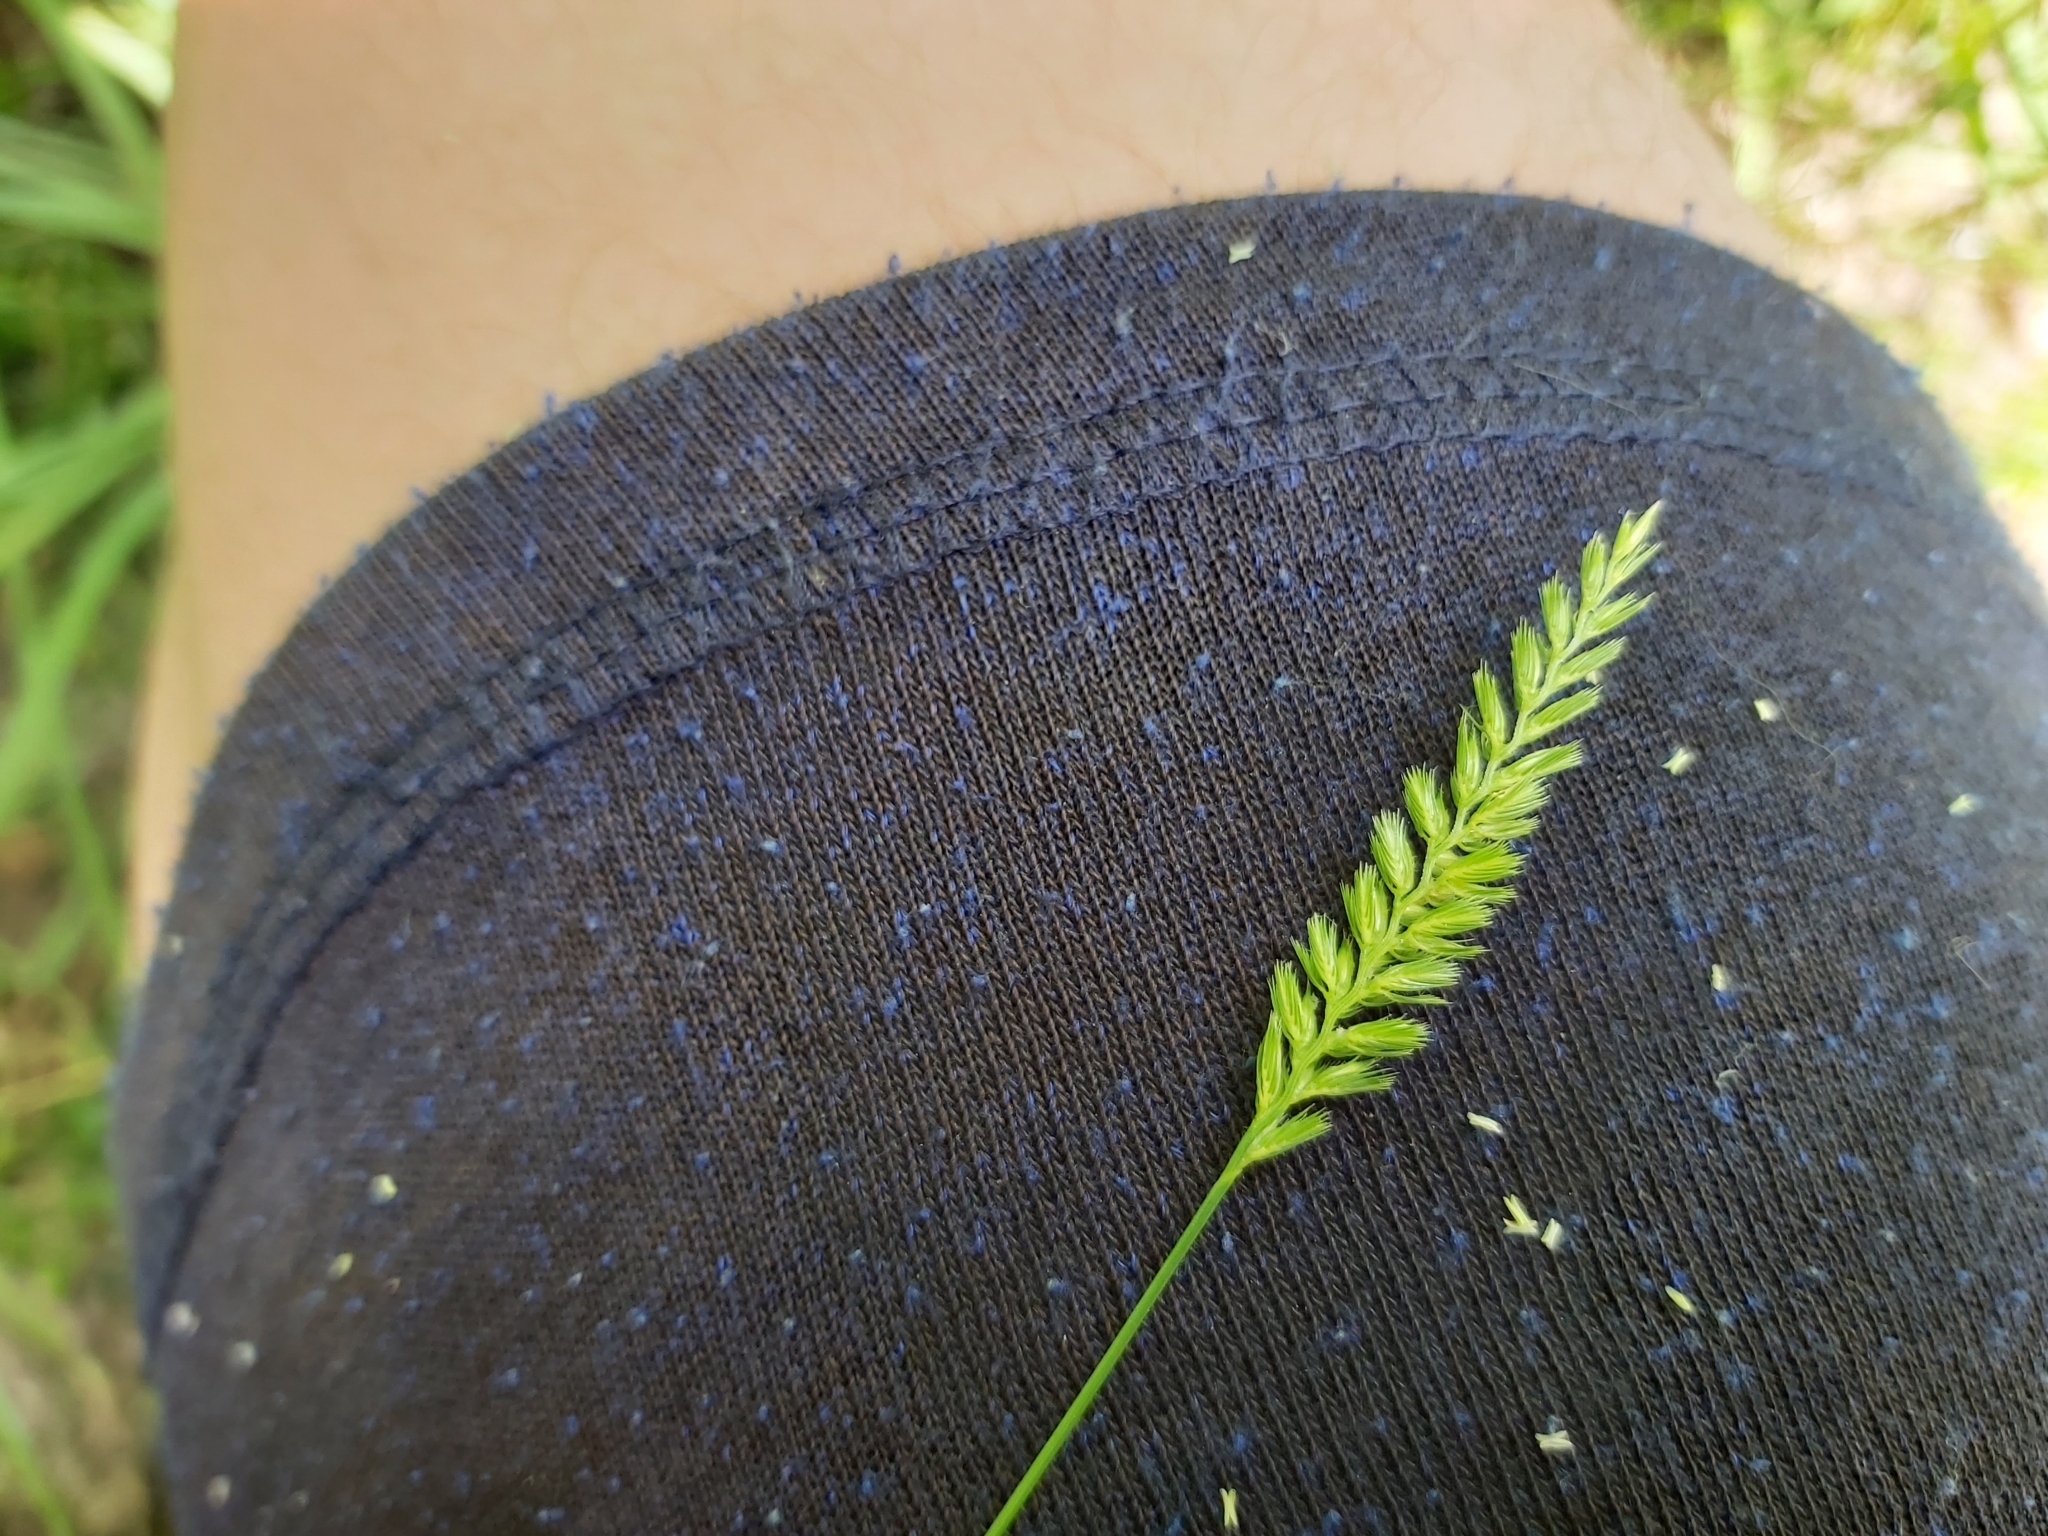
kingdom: Plantae
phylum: Tracheophyta
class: Liliopsida
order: Poales
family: Poaceae
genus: Cynosurus
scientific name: Cynosurus cristatus
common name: Crested dog's-tail
